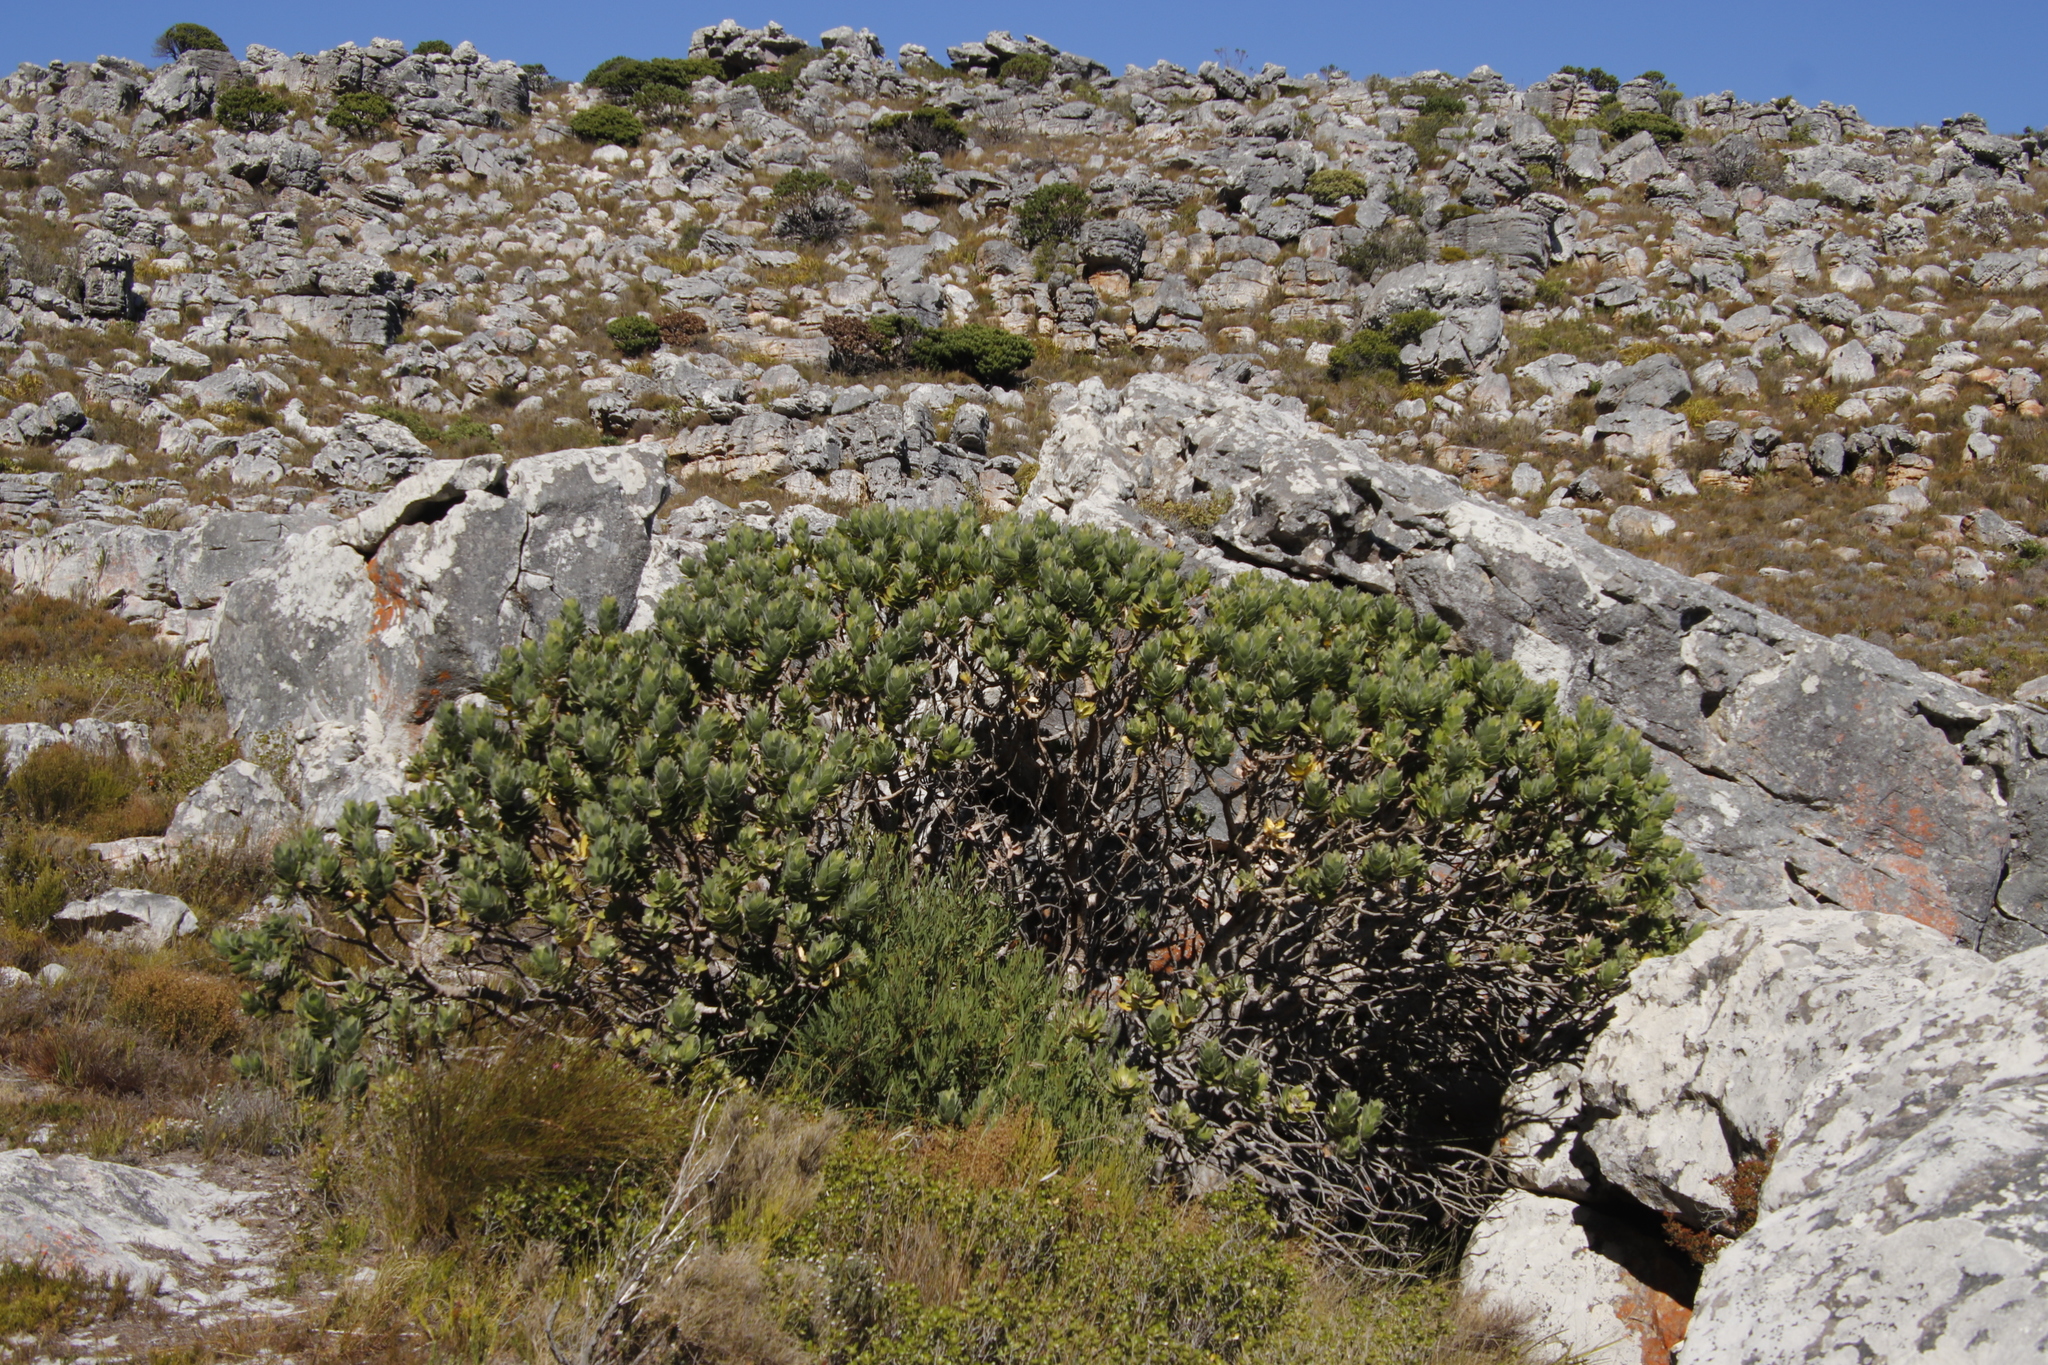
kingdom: Plantae
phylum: Tracheophyta
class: Magnoliopsida
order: Proteales
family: Proteaceae
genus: Leucospermum
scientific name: Leucospermum conocarpodendron
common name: Tree pincushion
